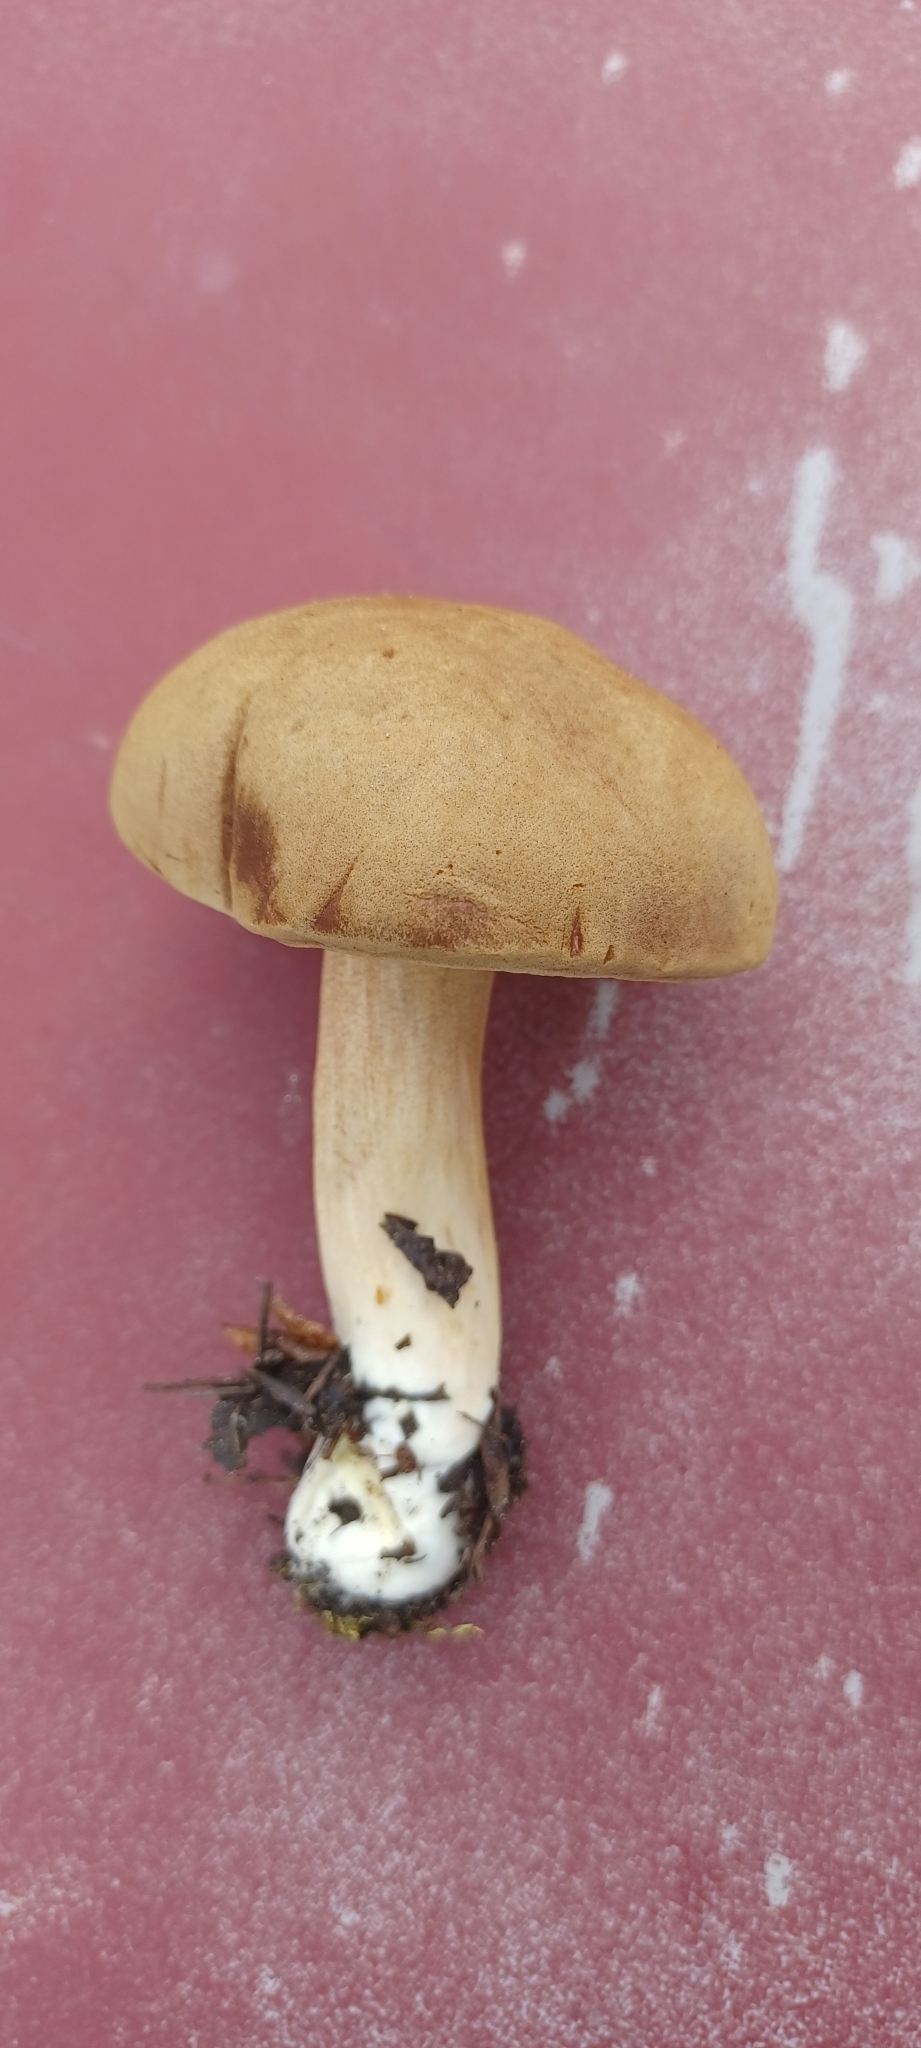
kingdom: Fungi
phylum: Basidiomycota
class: Agaricomycetes
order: Boletales
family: Boletaceae
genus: Xerocomus
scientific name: Xerocomus subtomentosus
